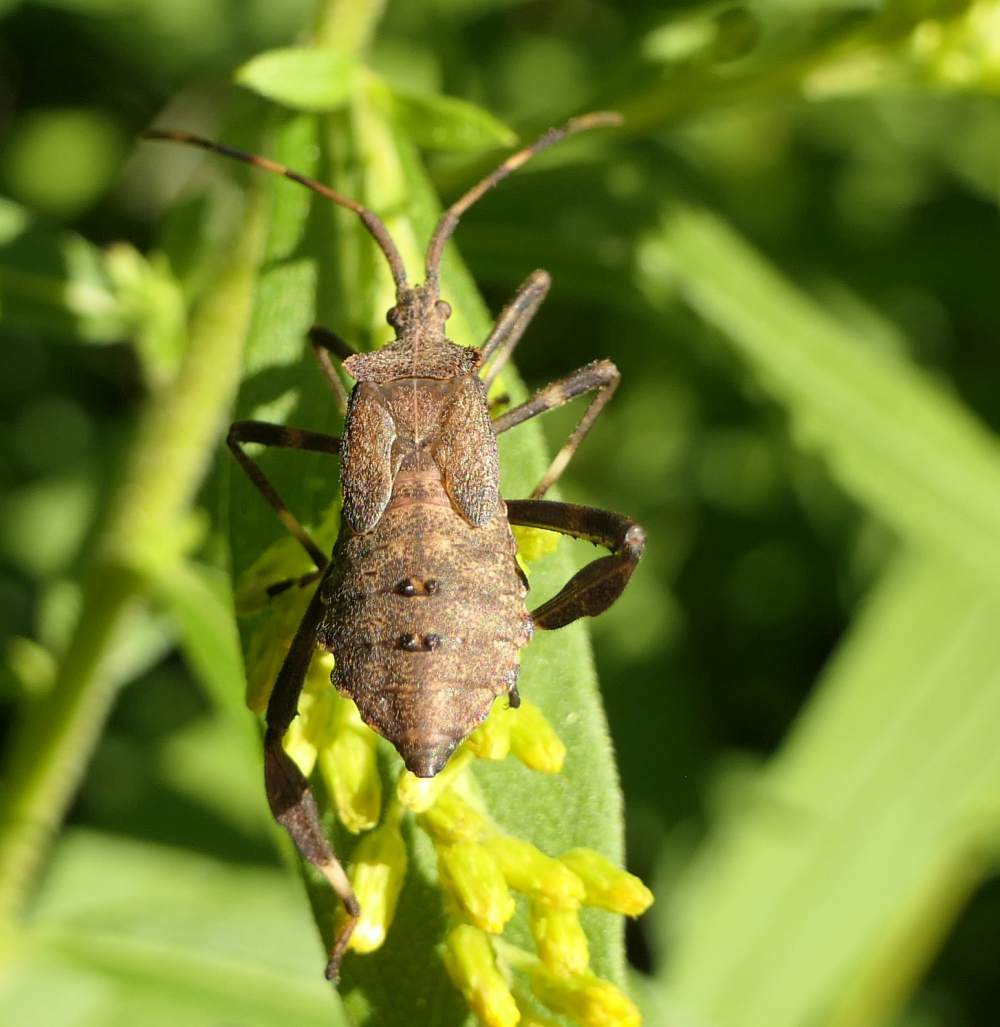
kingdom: Animalia
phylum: Arthropoda
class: Insecta
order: Hemiptera
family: Coreidae
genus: Acanthocephala
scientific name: Acanthocephala terminalis
